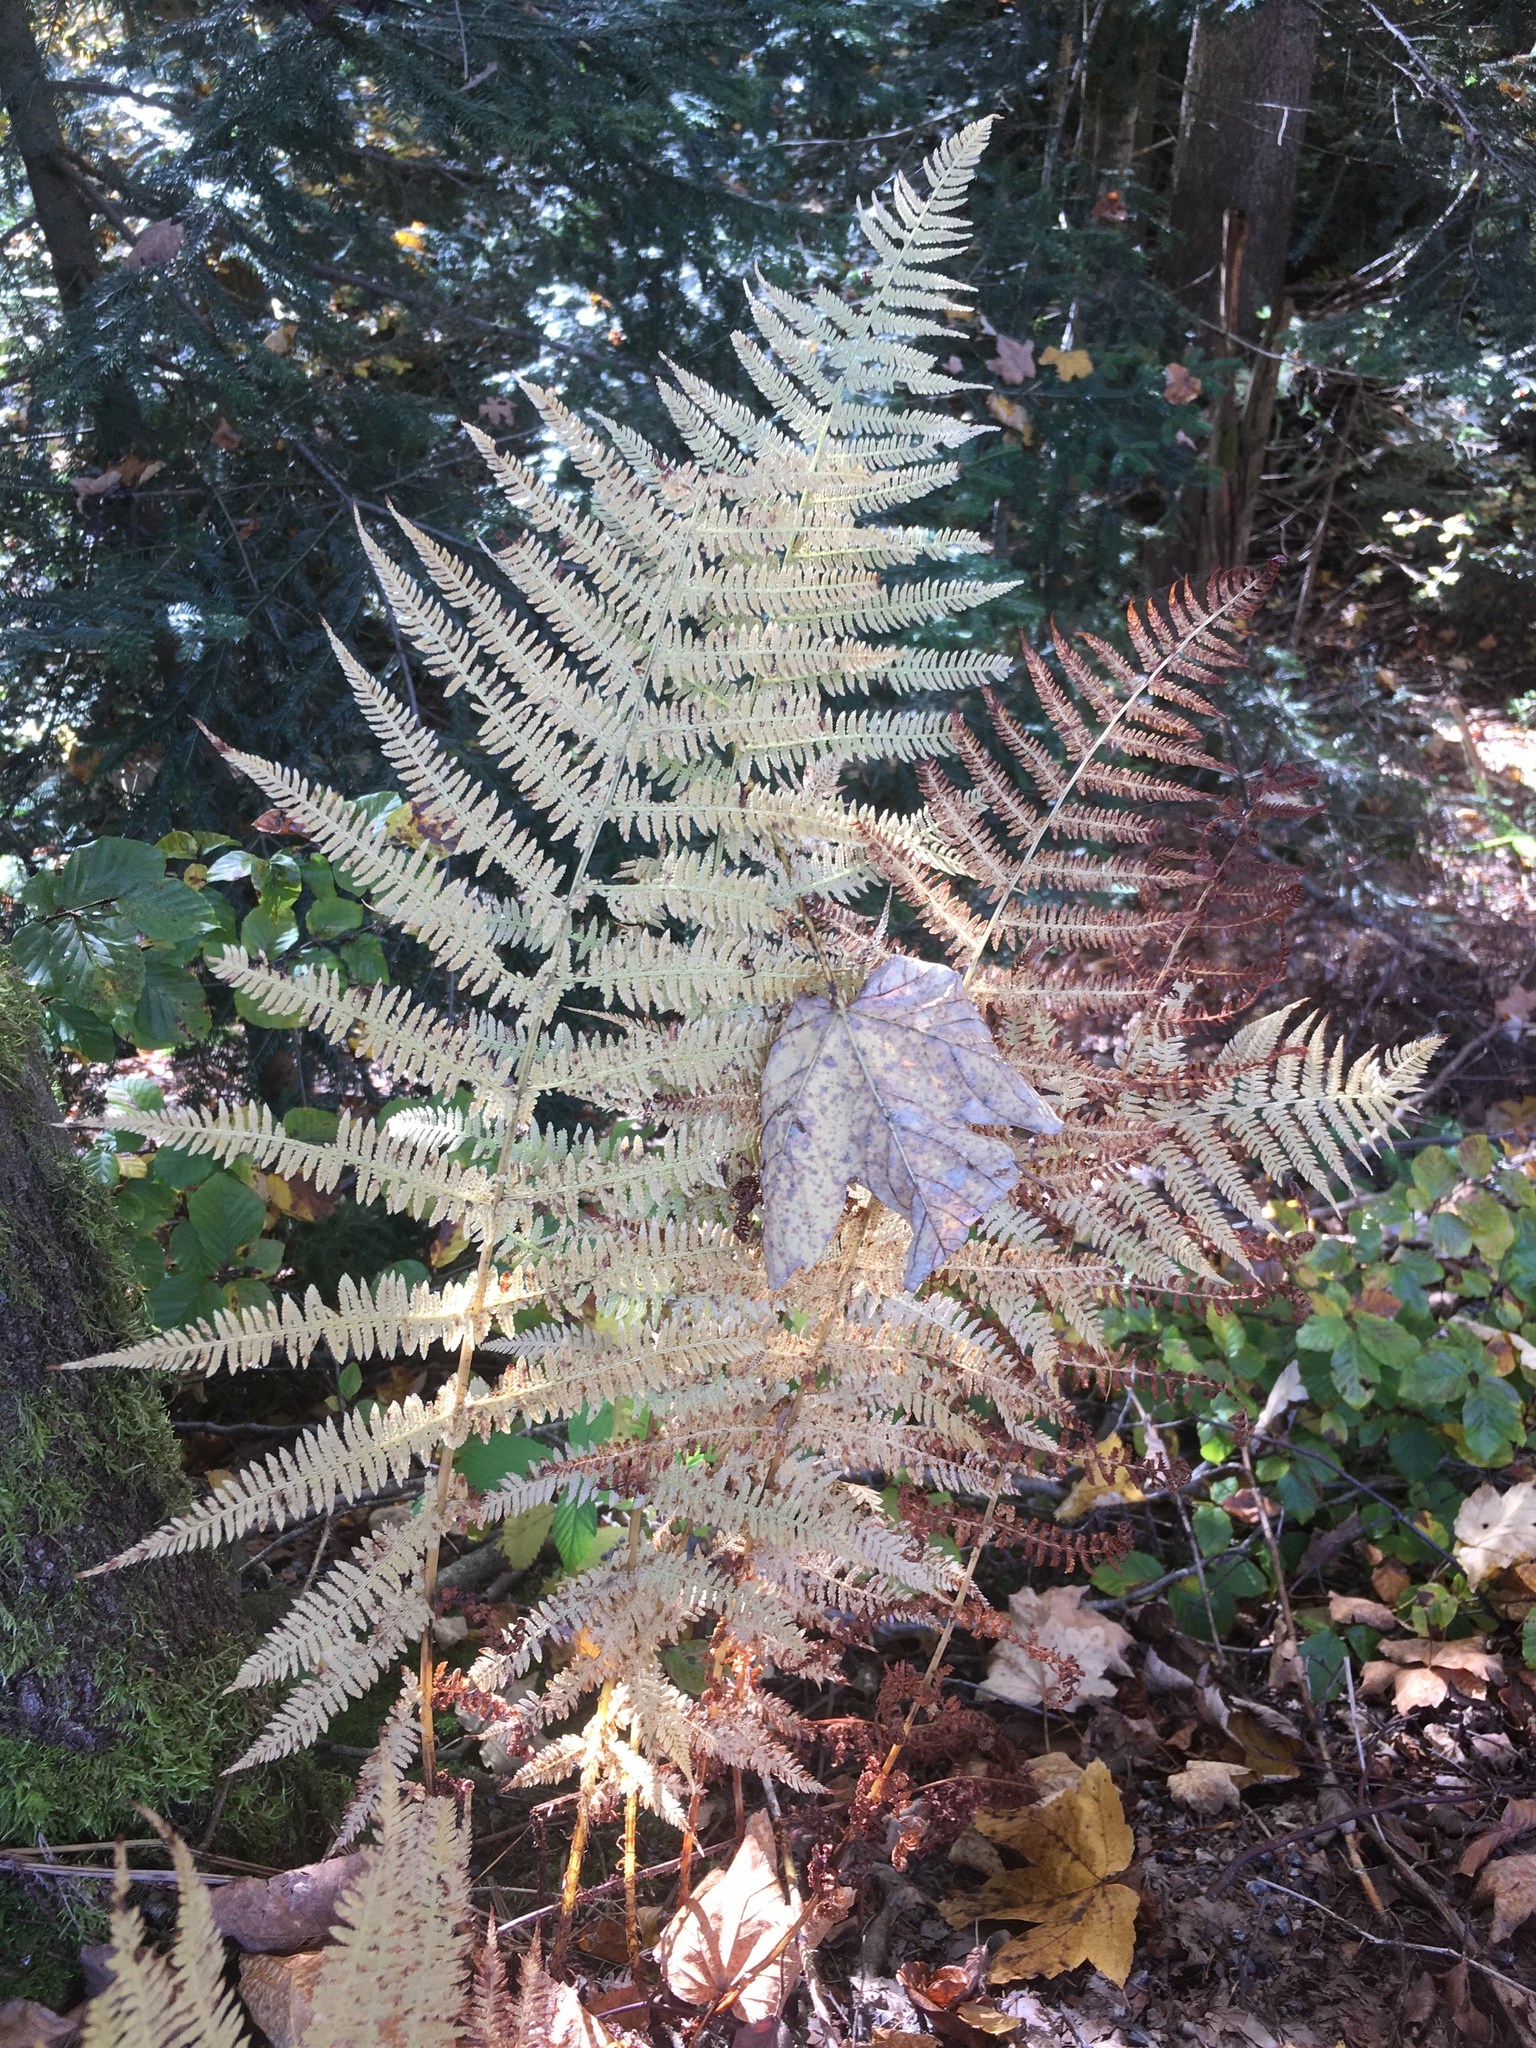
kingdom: Plantae
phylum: Tracheophyta
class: Polypodiopsida
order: Polypodiales
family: Athyriaceae
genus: Athyrium
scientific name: Athyrium filix-femina
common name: Lady fern
